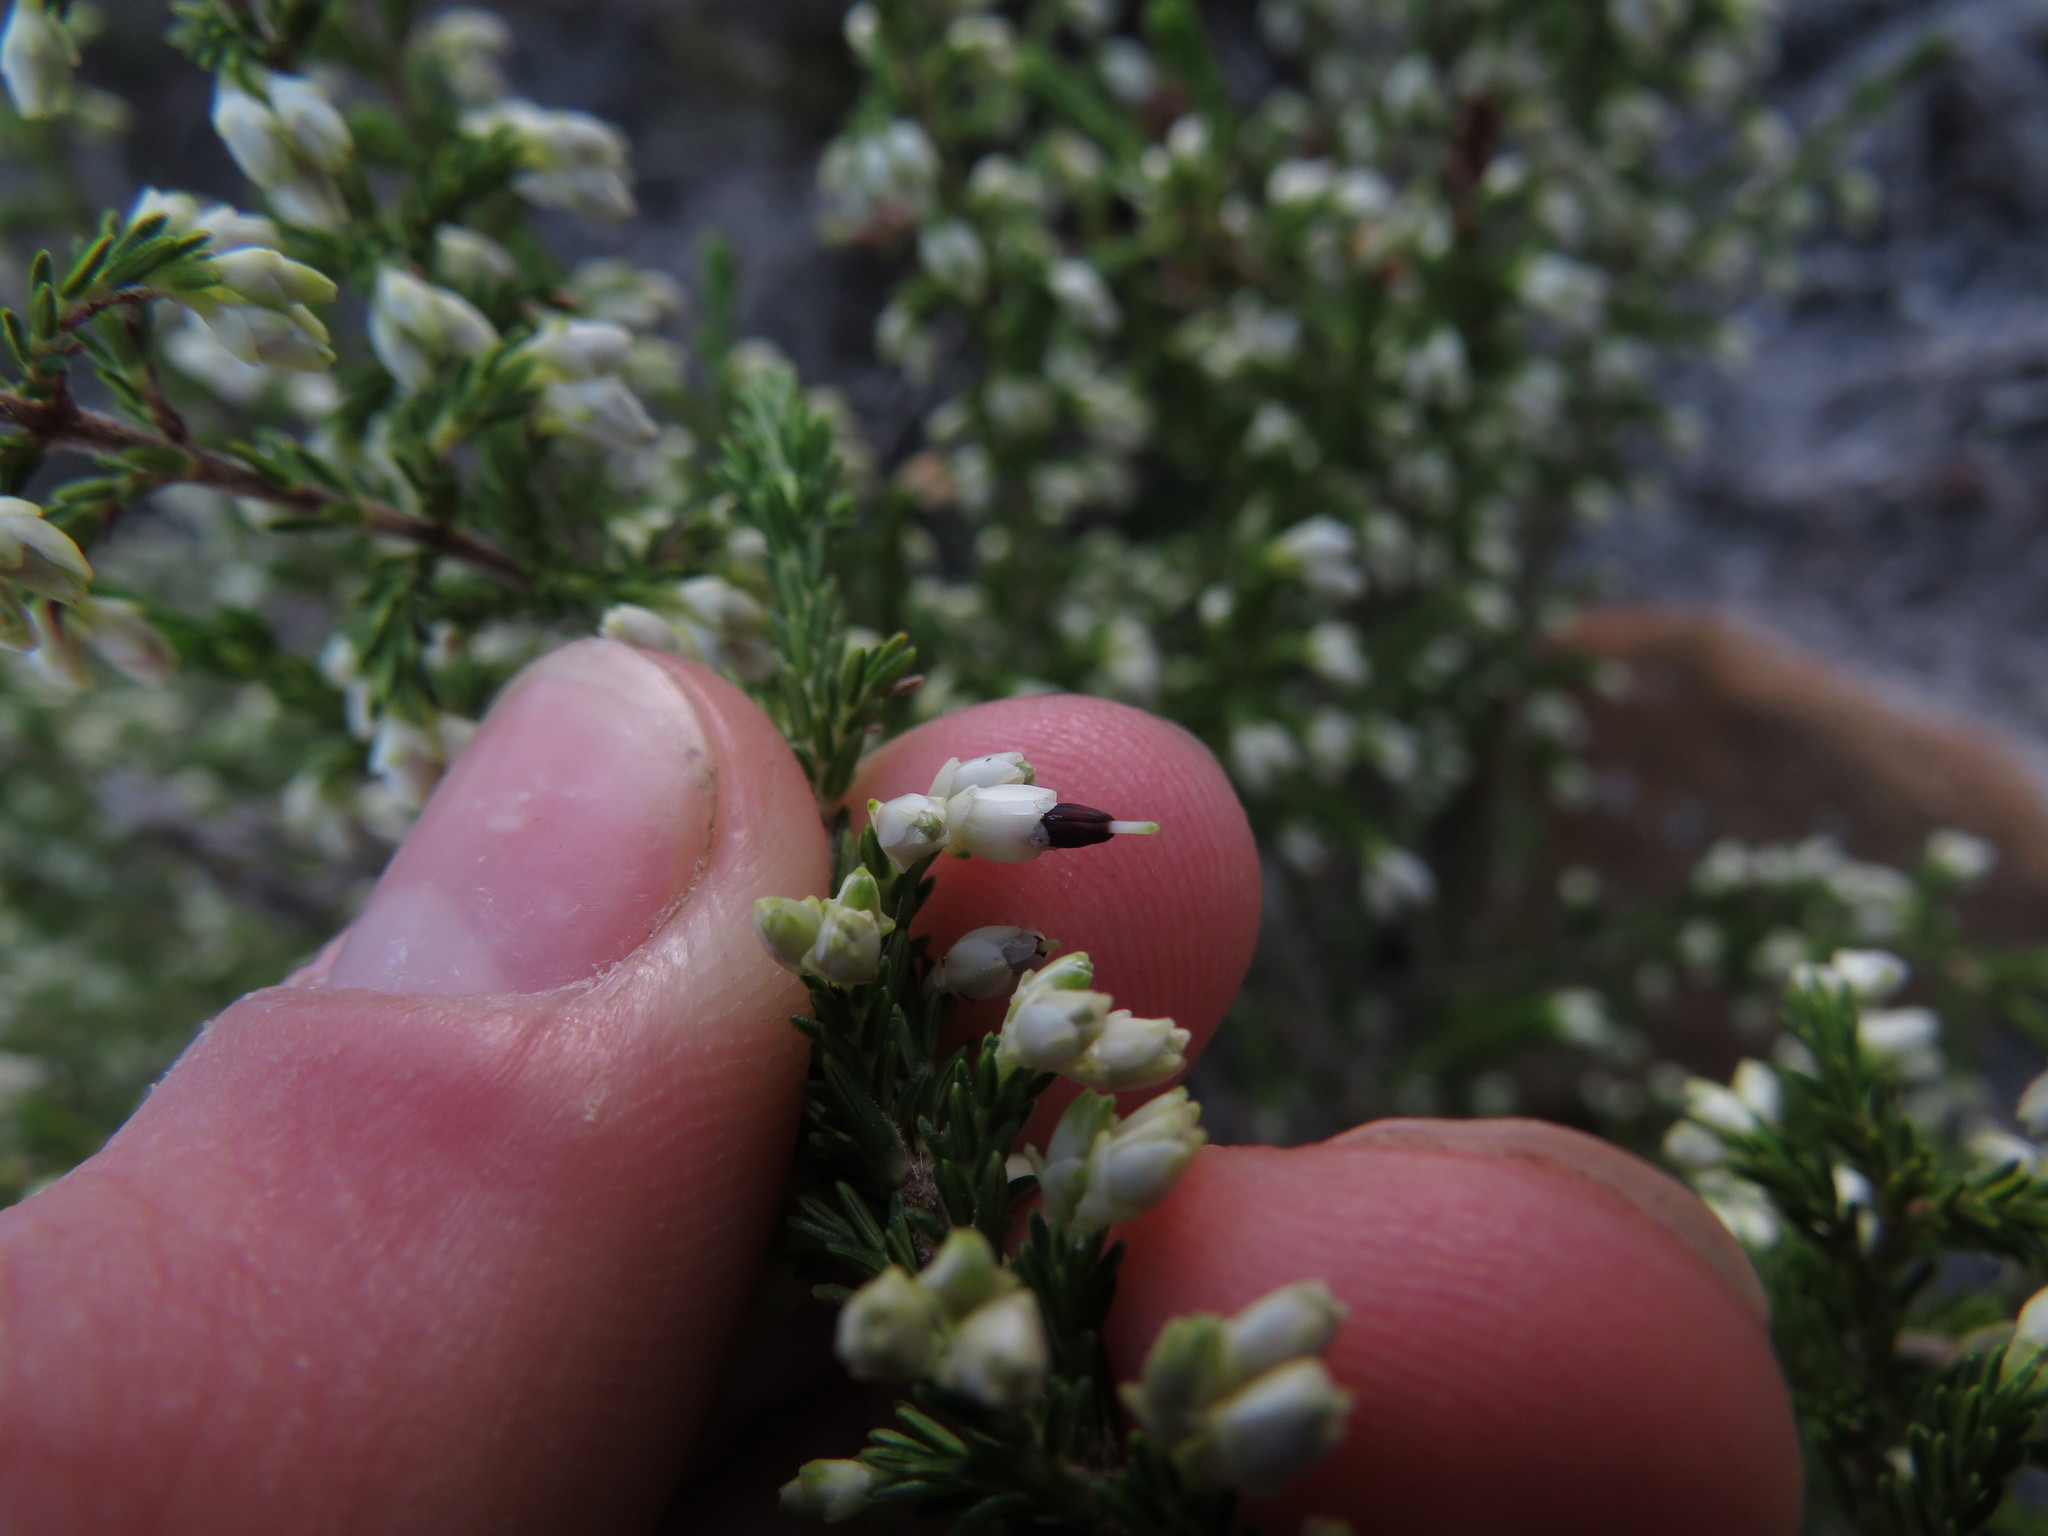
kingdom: Plantae
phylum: Tracheophyta
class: Magnoliopsida
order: Ericales
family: Ericaceae
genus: Erica
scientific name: Erica imbricata
